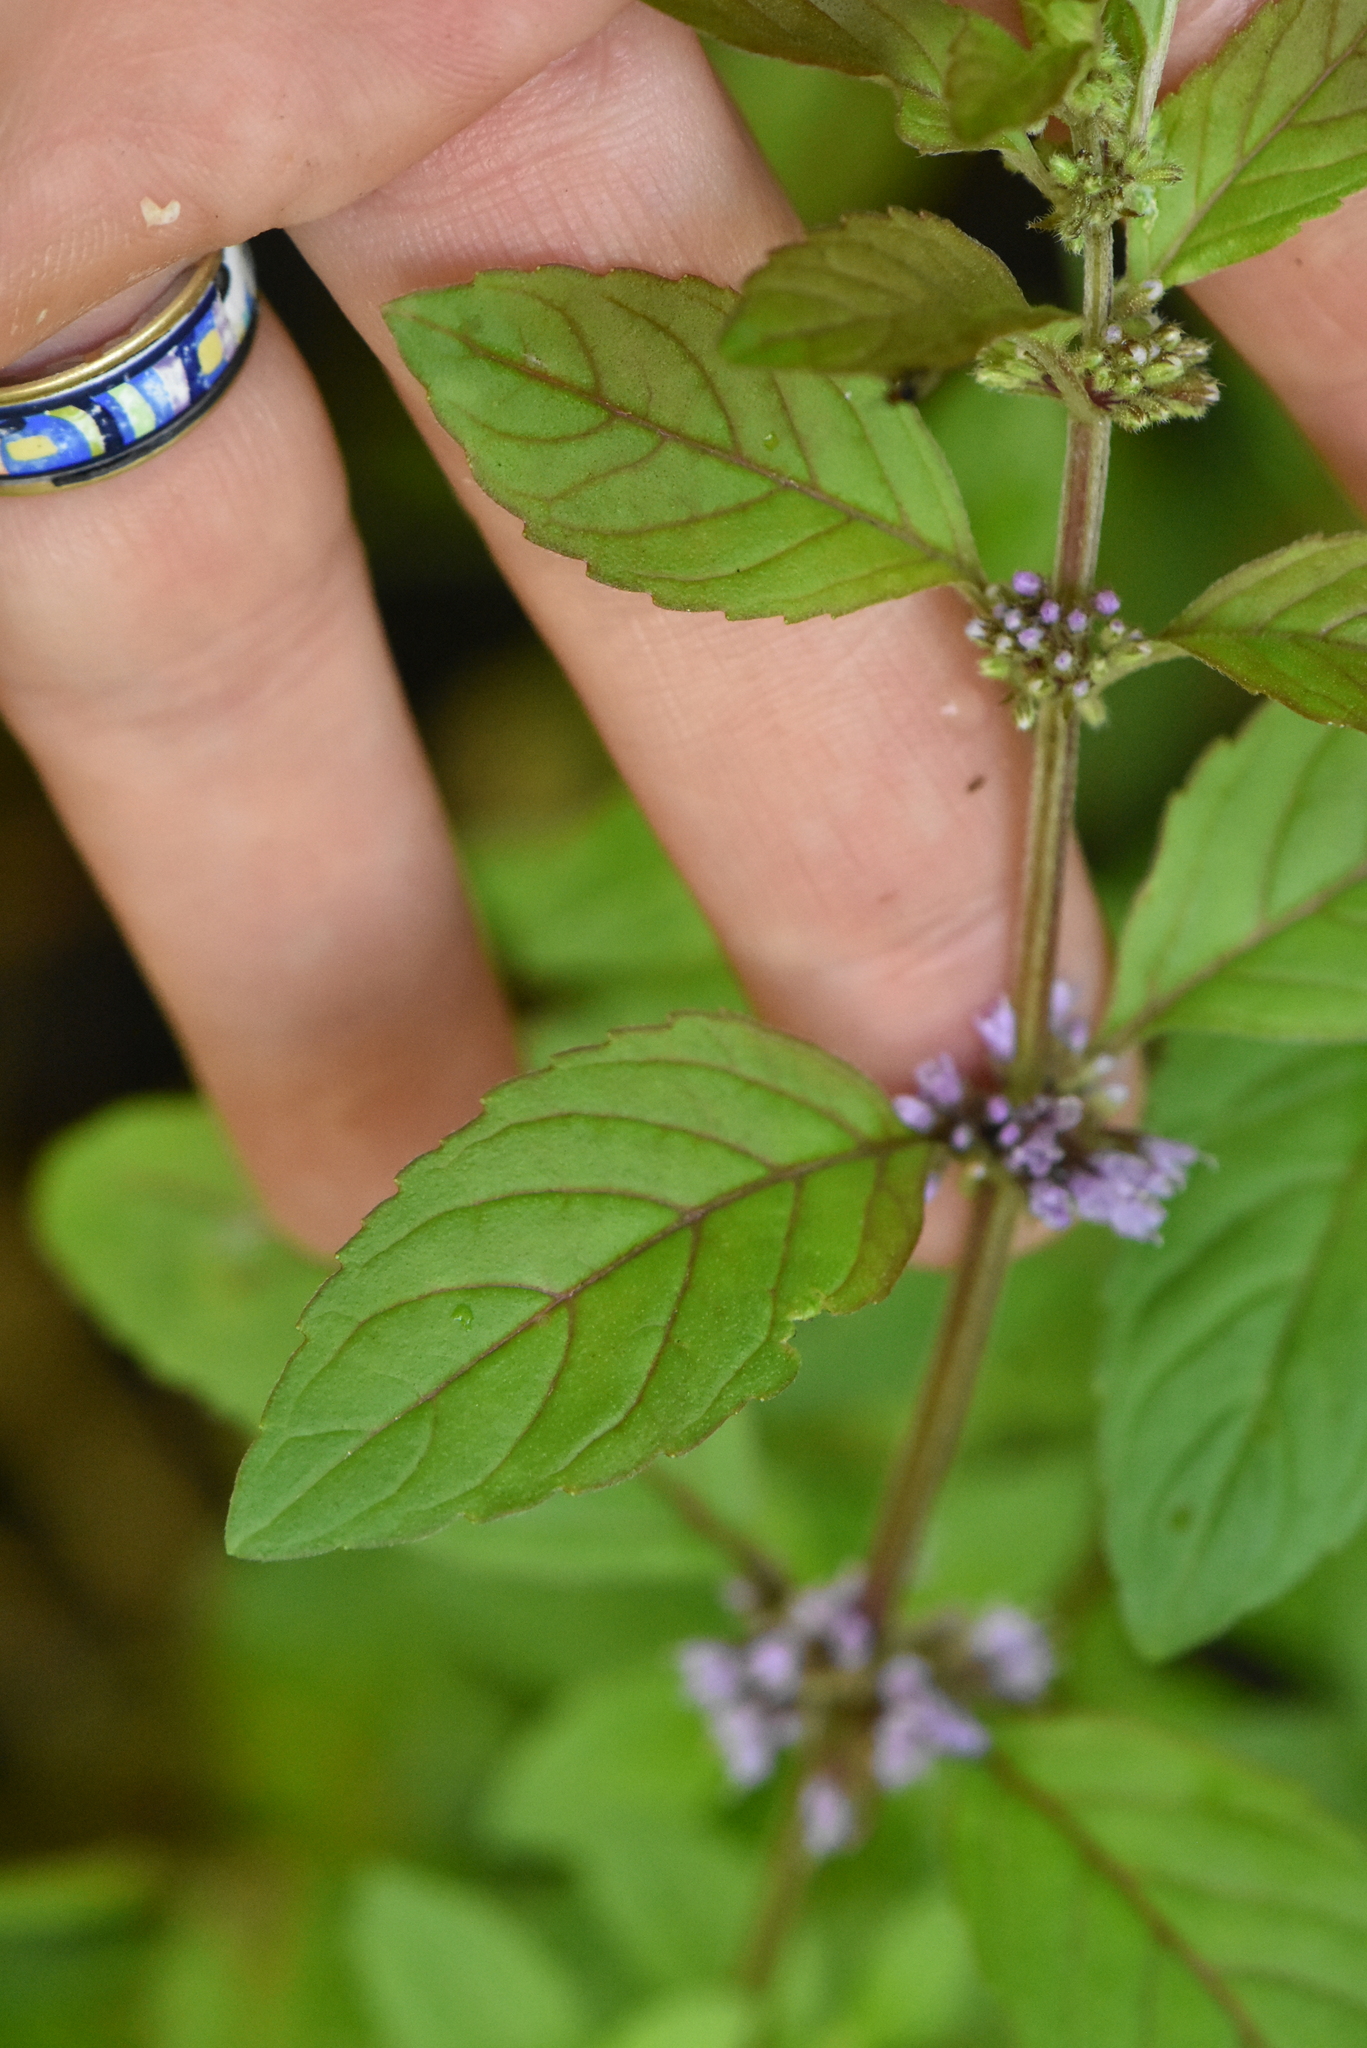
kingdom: Plantae
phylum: Tracheophyta
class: Magnoliopsida
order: Lamiales
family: Lamiaceae
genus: Mentha
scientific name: Mentha arvensis
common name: Corn mint
